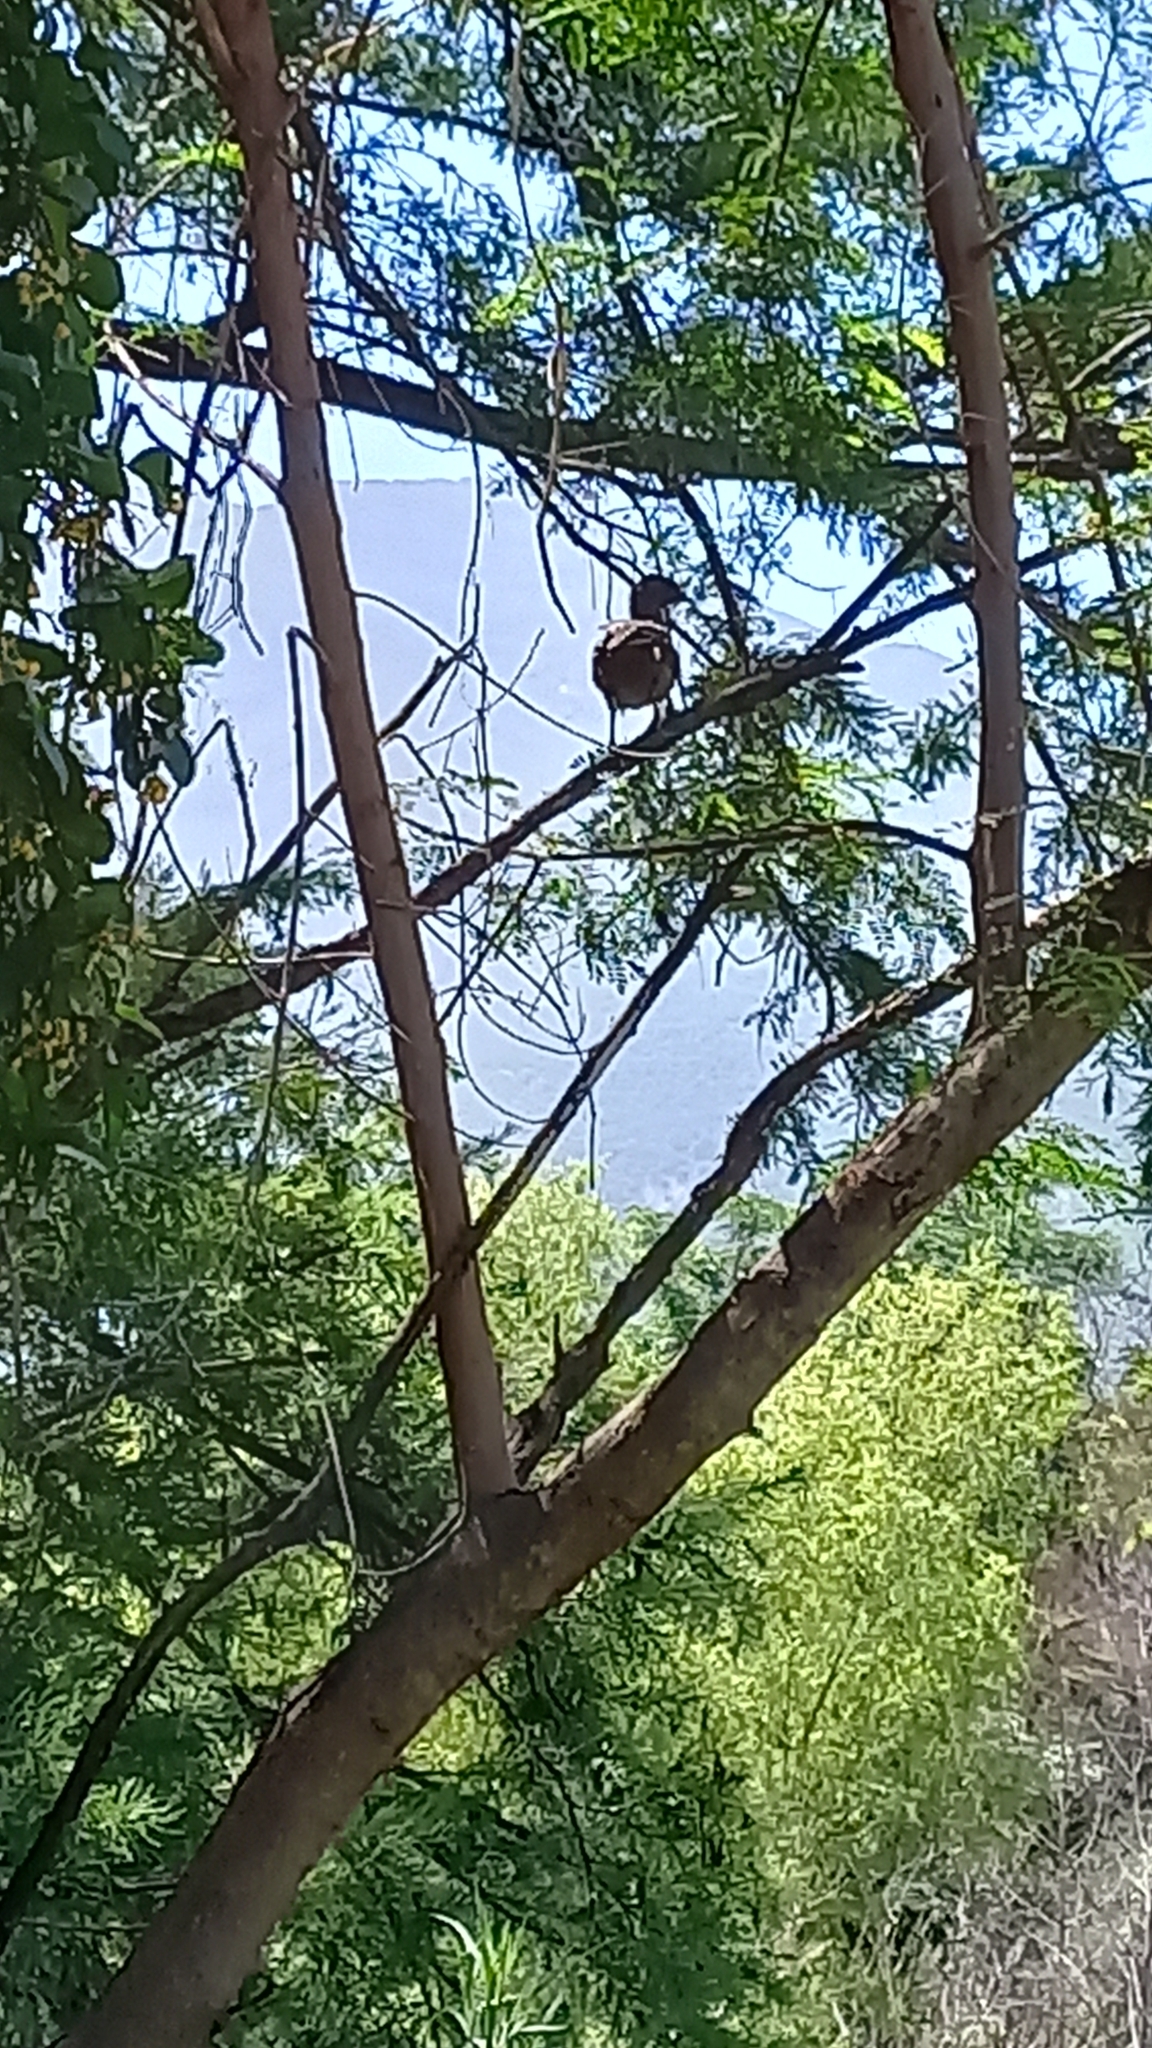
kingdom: Animalia
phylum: Chordata
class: Aves
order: Galliformes
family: Cracidae
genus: Ortalis
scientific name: Ortalis vetula
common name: Plain chachalaca
